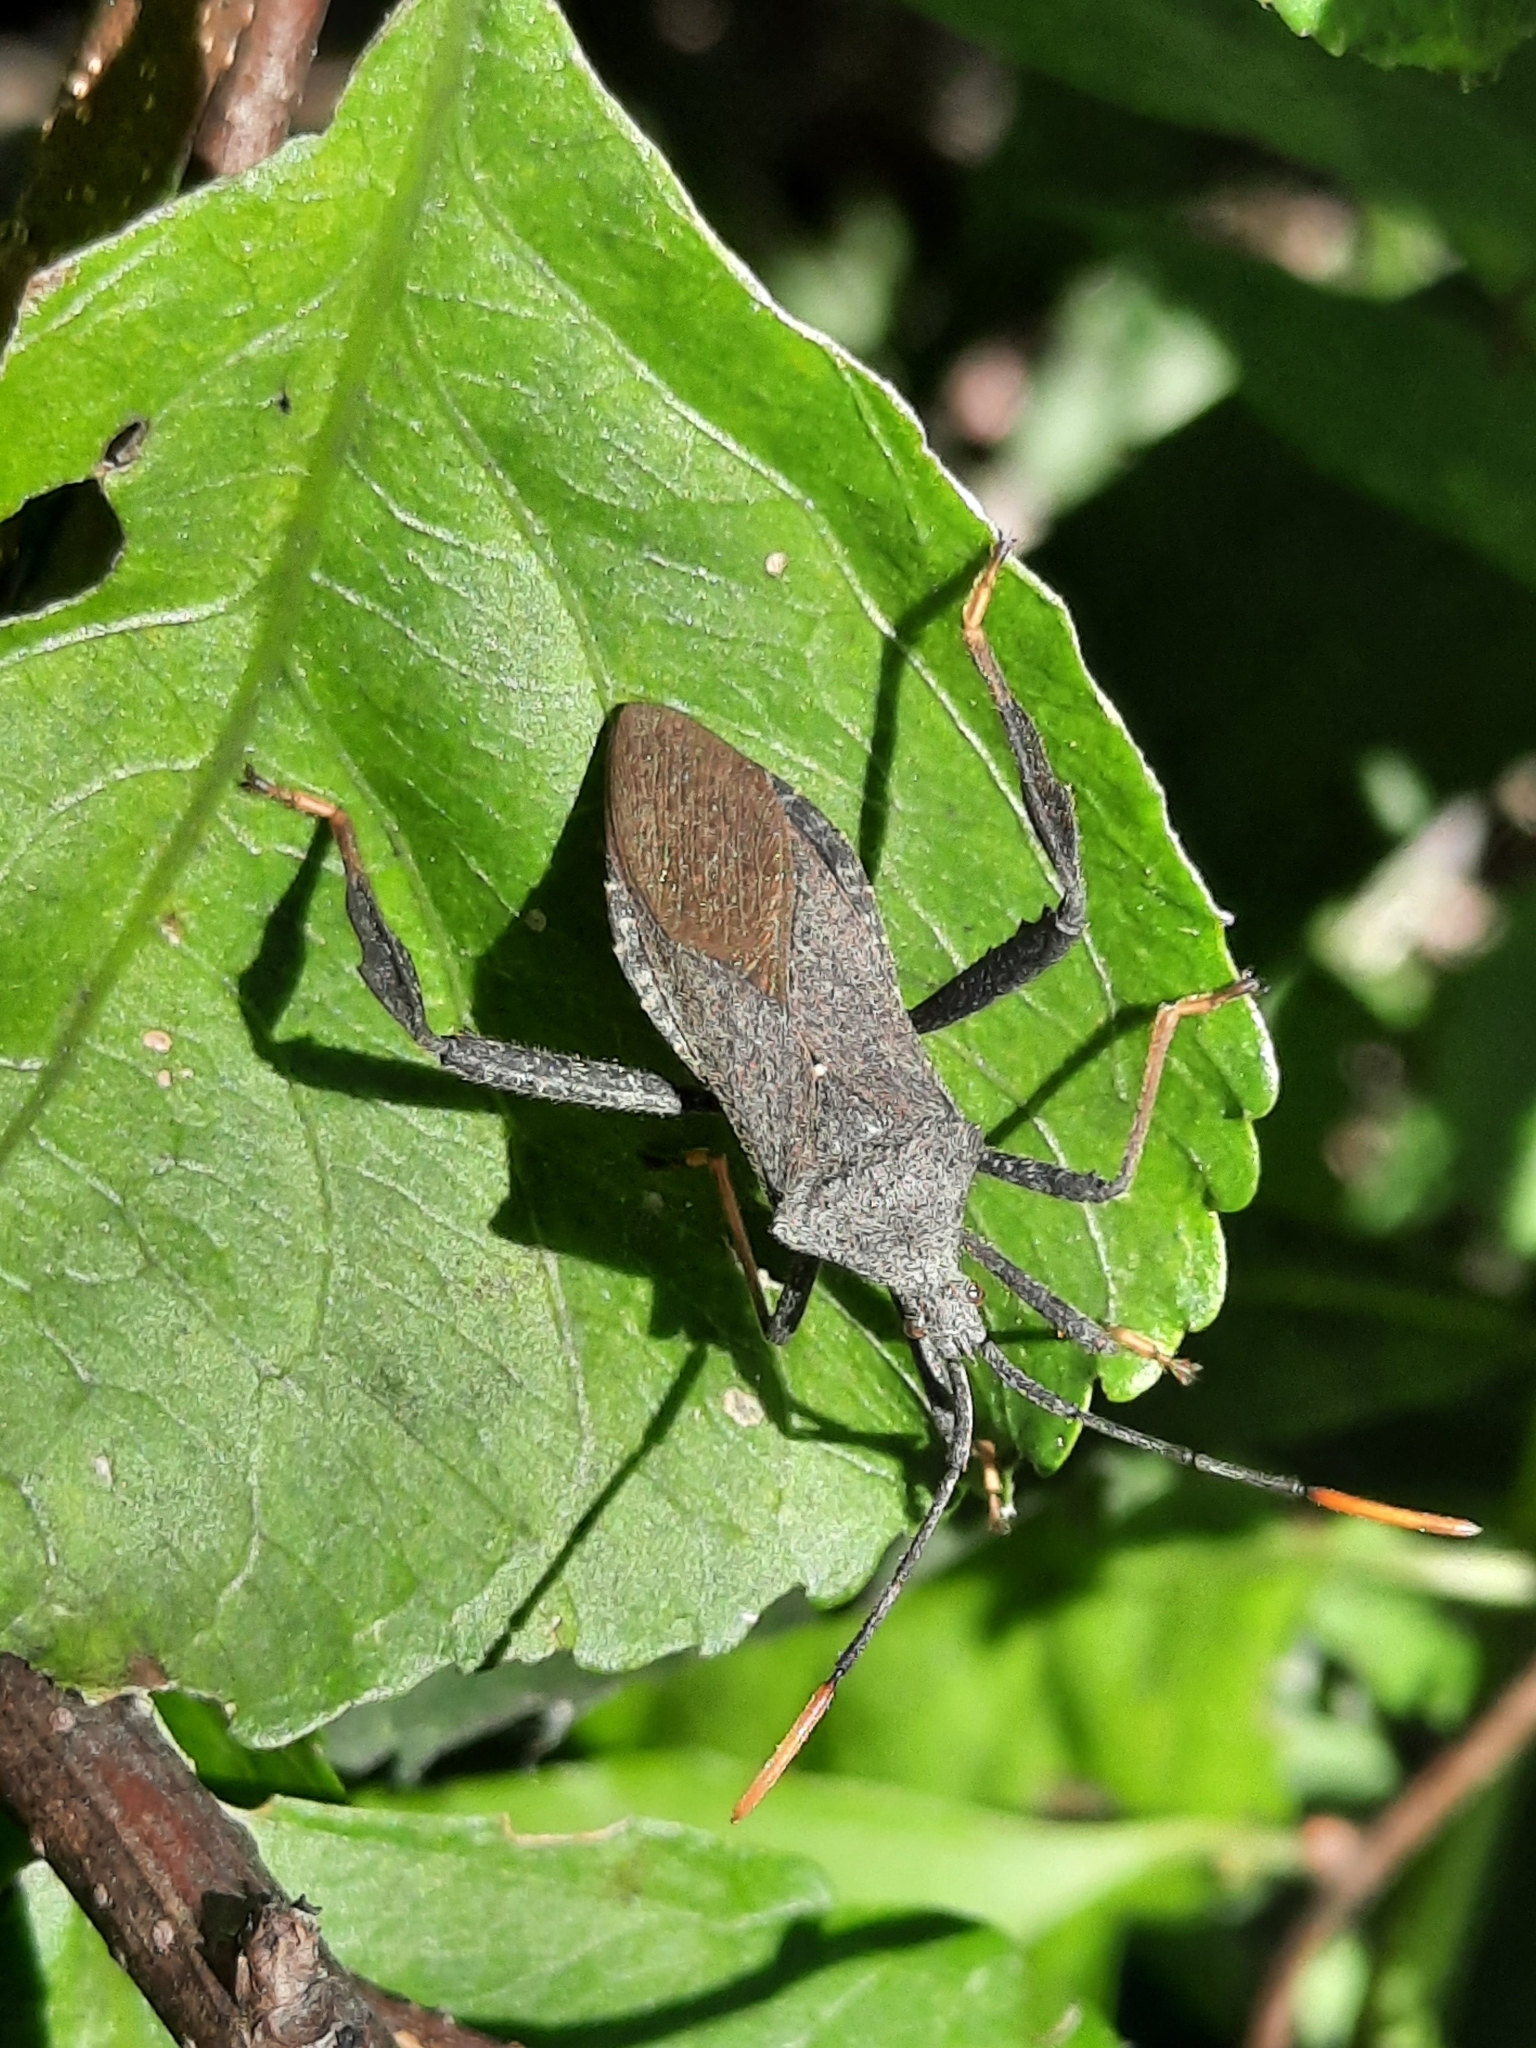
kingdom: Animalia
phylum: Arthropoda
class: Insecta
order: Hemiptera
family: Coreidae
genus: Acanthocephala
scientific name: Acanthocephala terminalis
